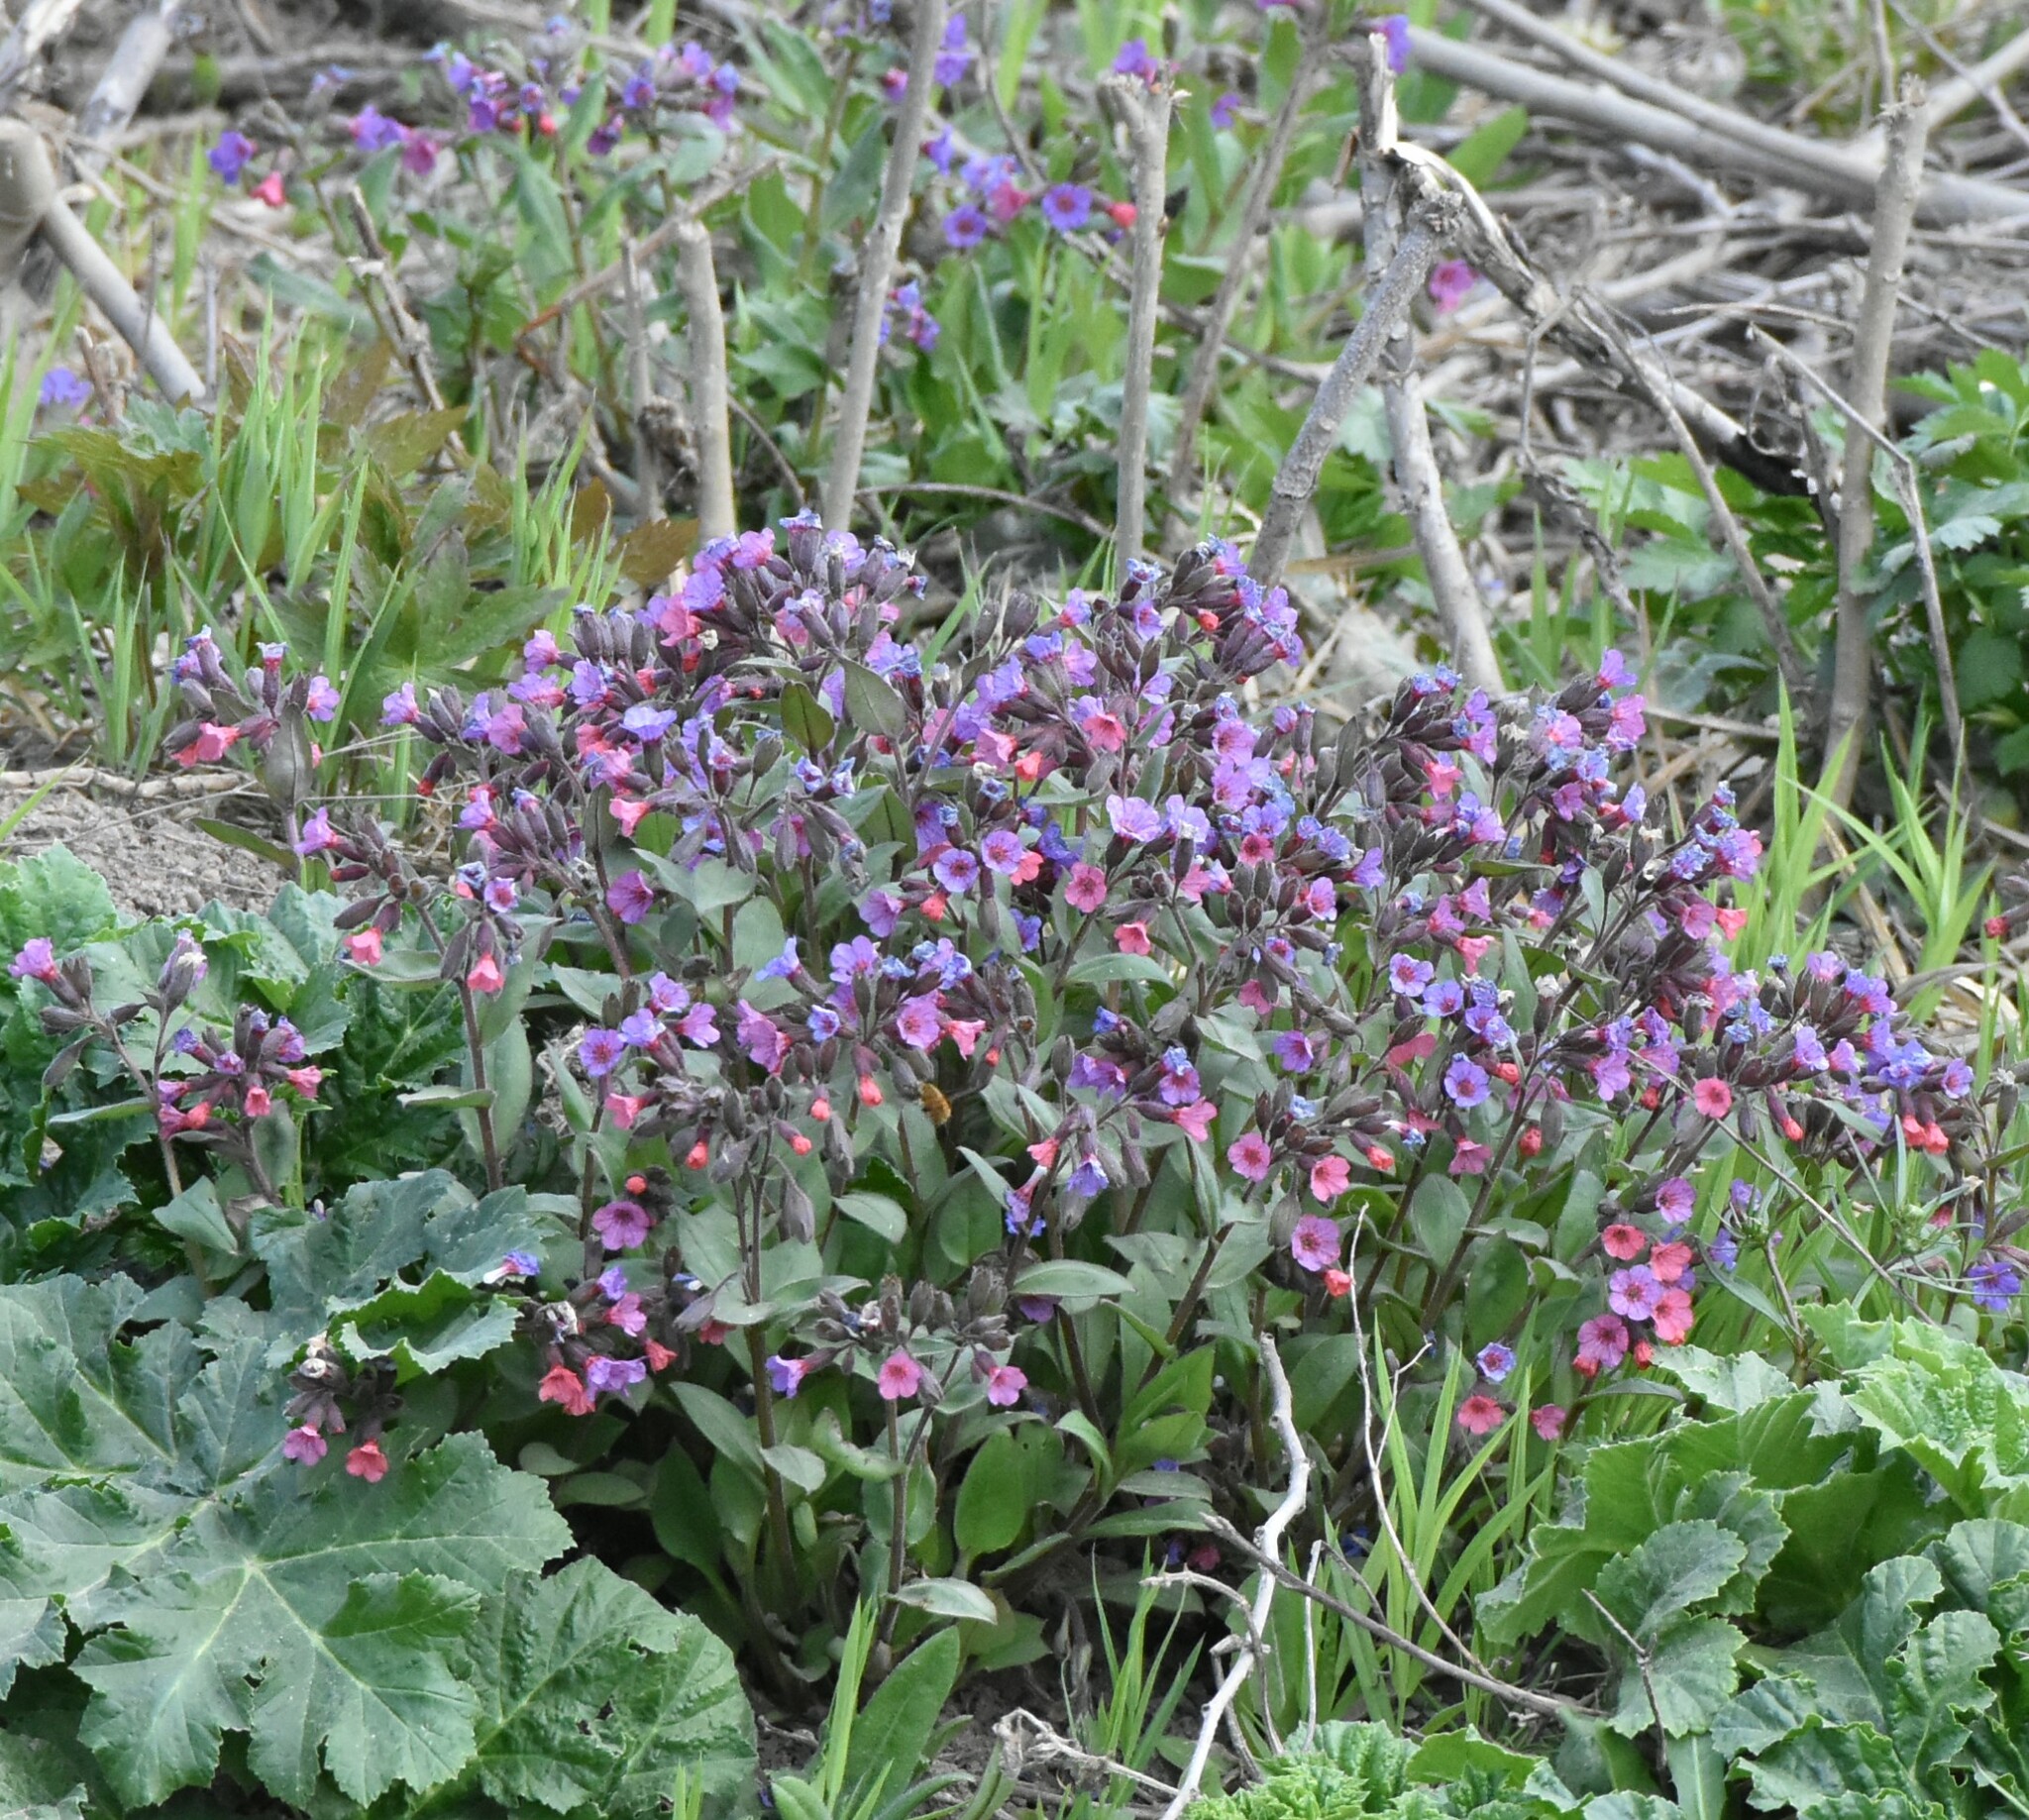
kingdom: Plantae
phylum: Tracheophyta
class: Magnoliopsida
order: Boraginales
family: Boraginaceae
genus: Pulmonaria
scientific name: Pulmonaria obscura
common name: Suffolk lungwort
